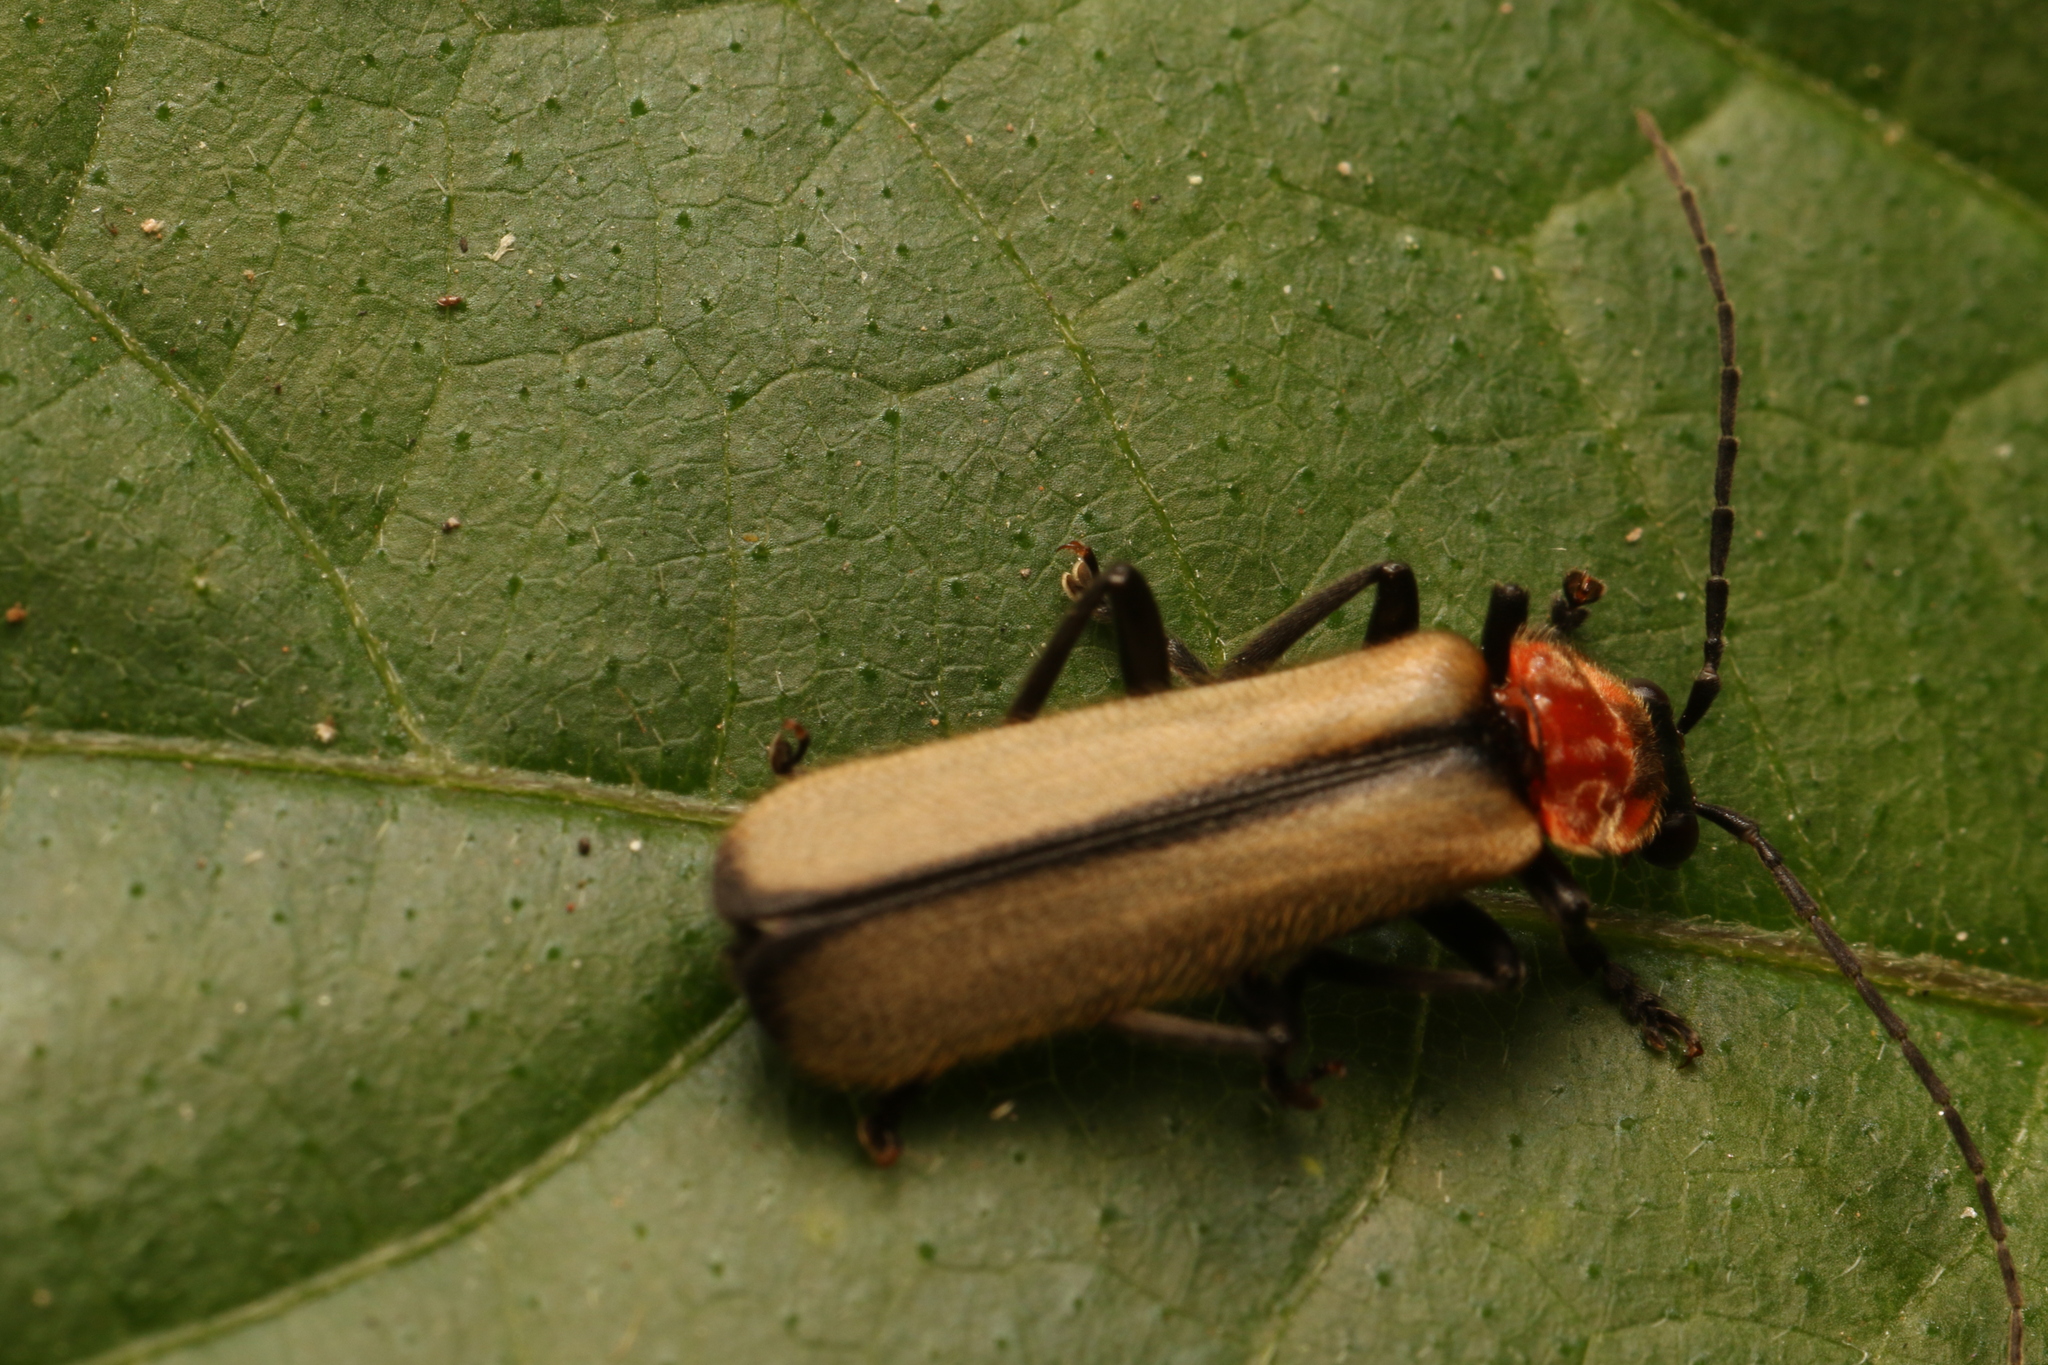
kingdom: Animalia
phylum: Arthropoda
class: Insecta
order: Coleoptera
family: Cantharidae
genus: Discodon
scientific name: Discodon
